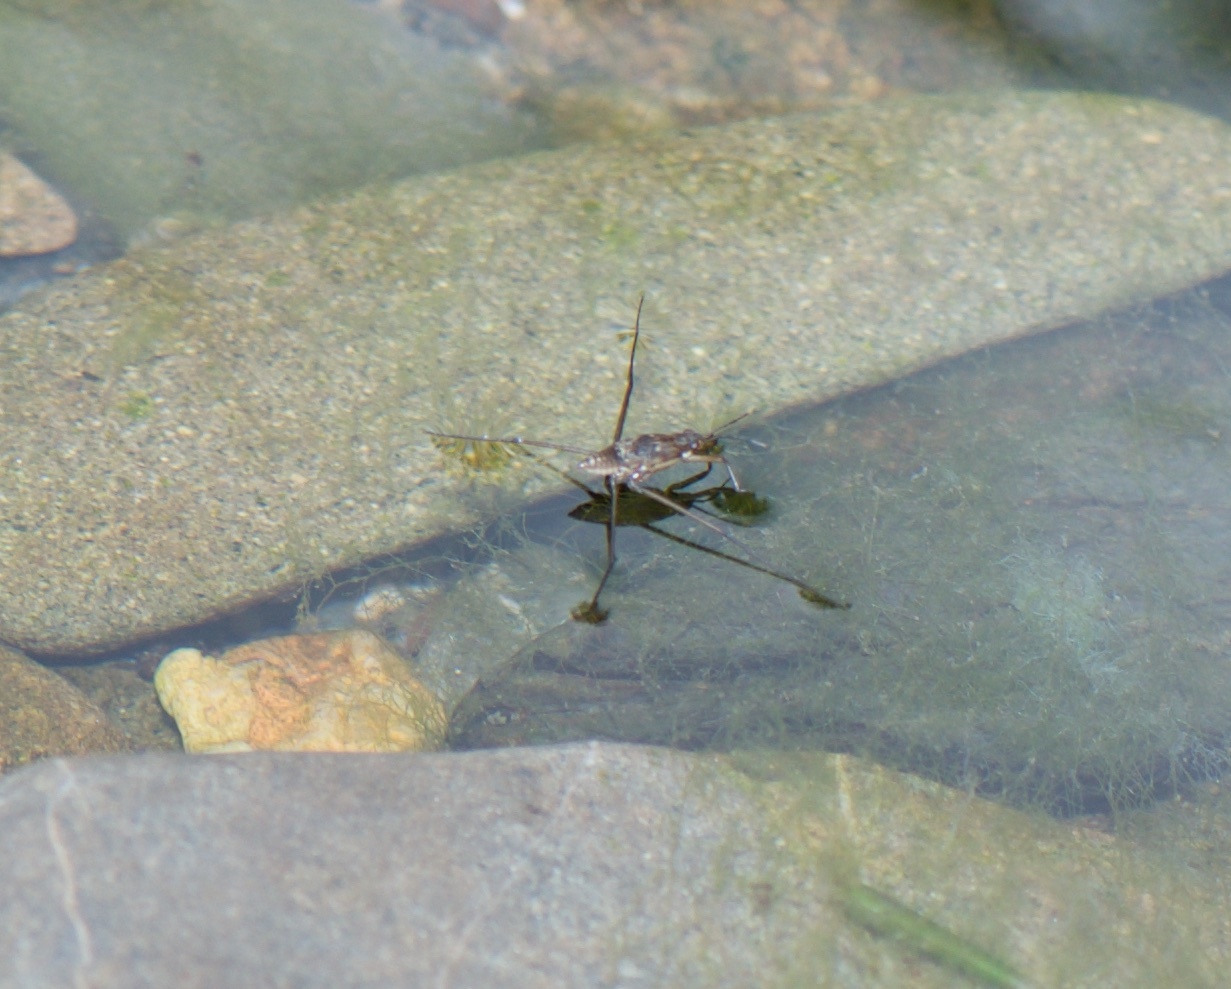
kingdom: Animalia
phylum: Arthropoda
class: Insecta
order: Hemiptera
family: Gerridae
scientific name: Gerridae
